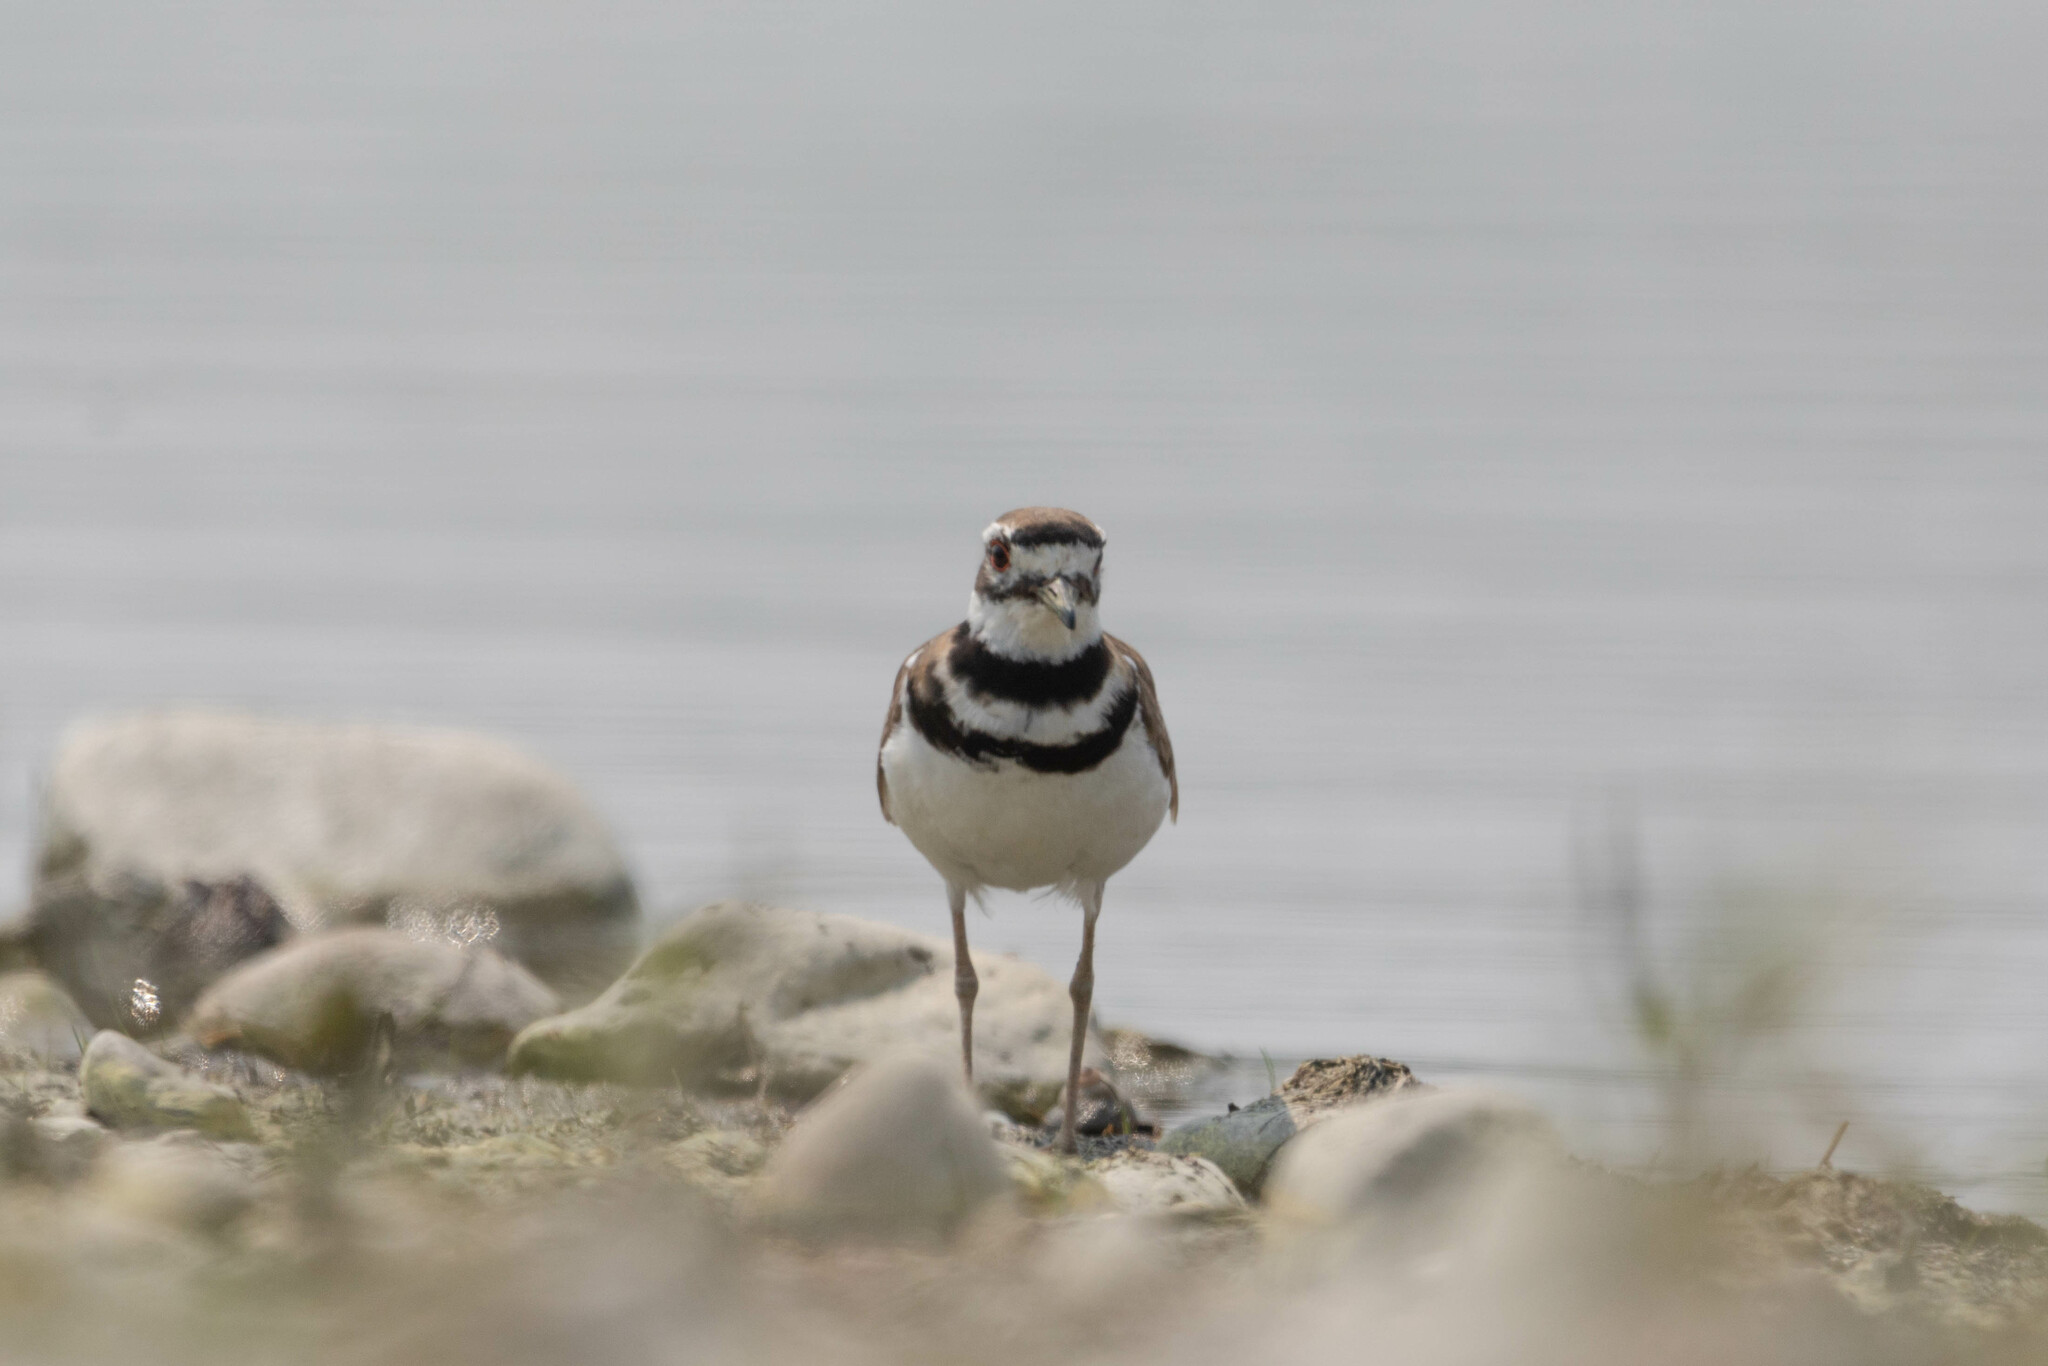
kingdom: Animalia
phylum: Chordata
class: Aves
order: Charadriiformes
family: Charadriidae
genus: Charadrius
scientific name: Charadrius vociferus
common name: Killdeer
